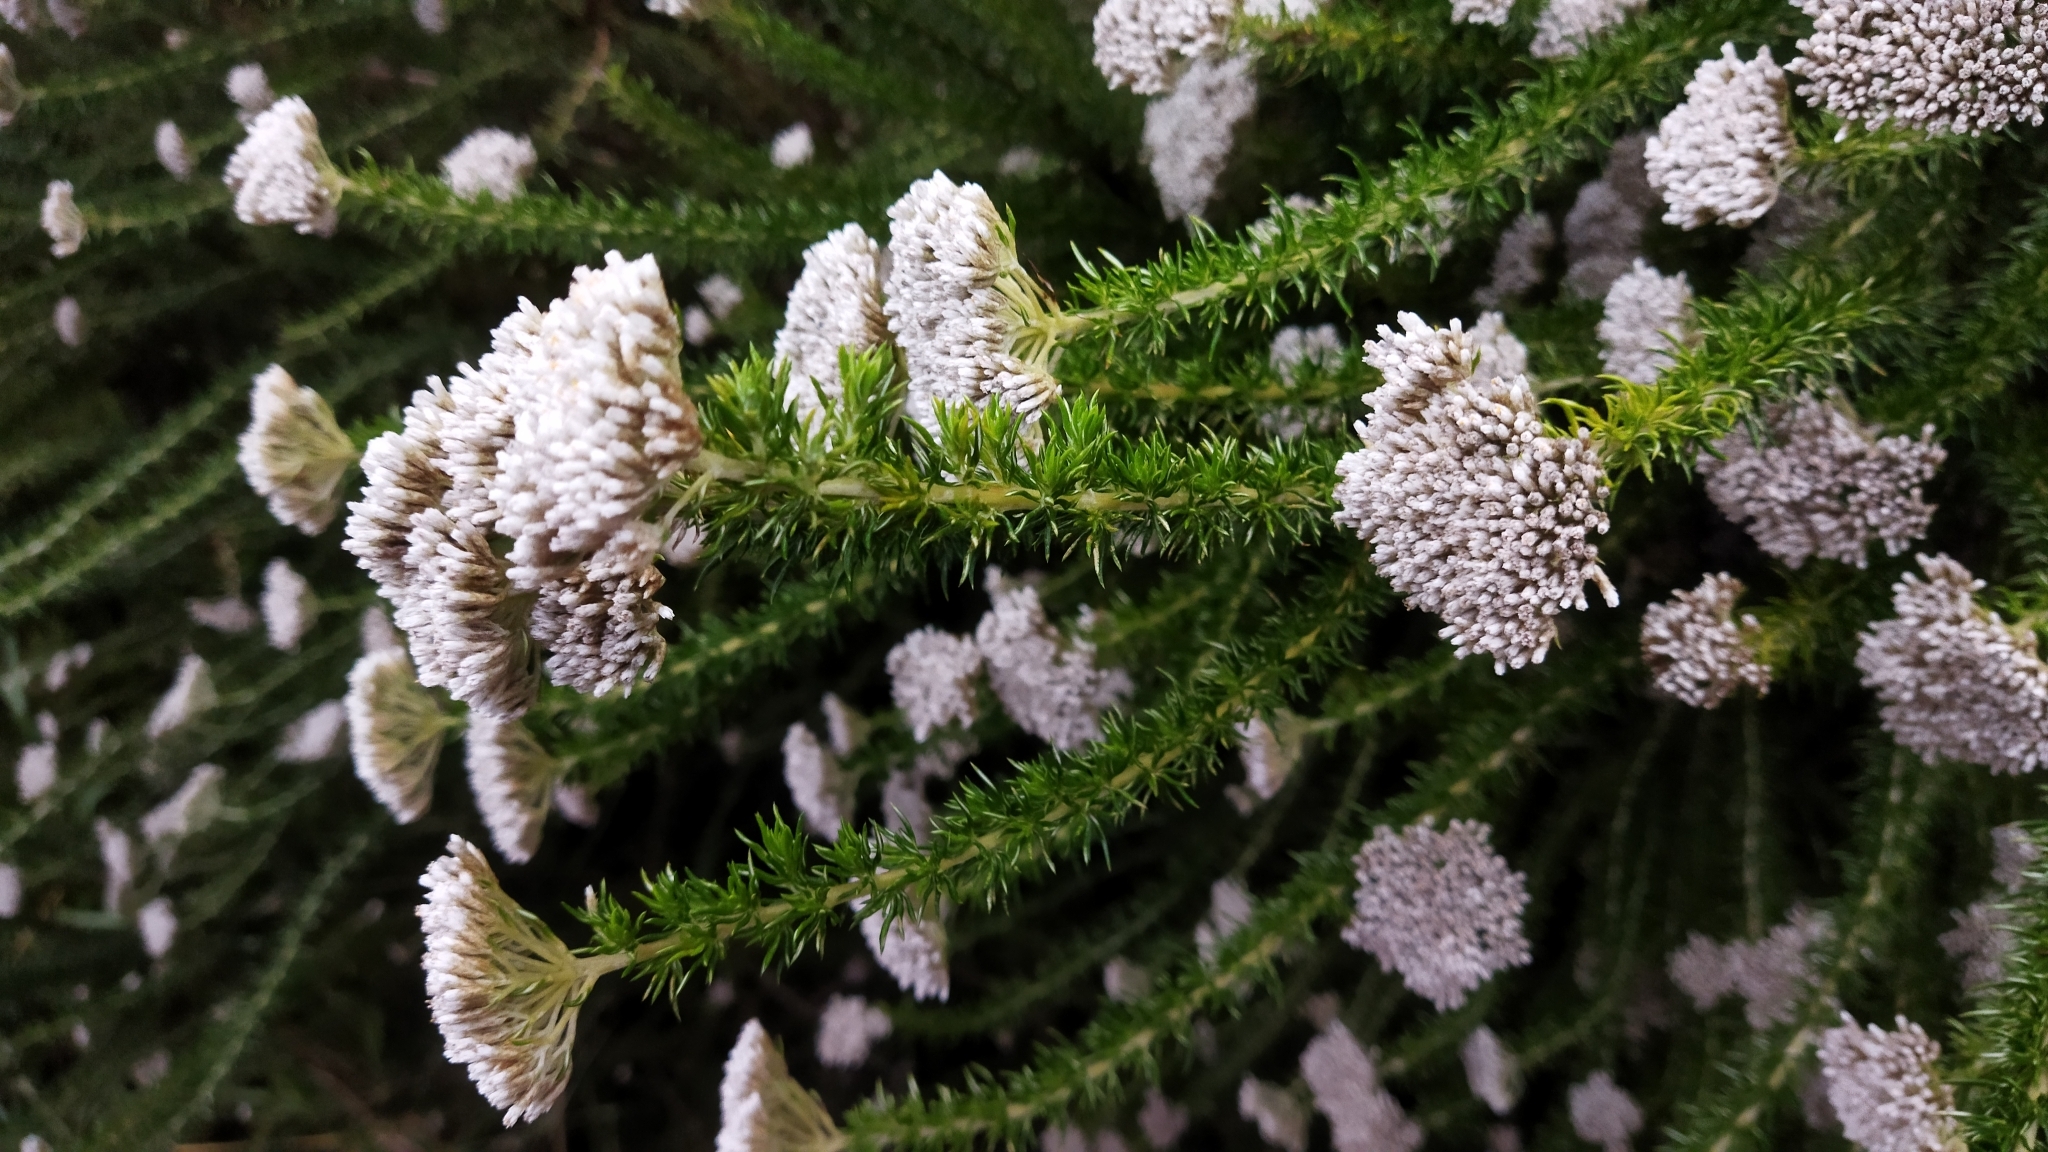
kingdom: Plantae
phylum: Tracheophyta
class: Magnoliopsida
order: Asterales
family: Asteraceae
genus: Metalasia
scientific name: Metalasia trivialis
